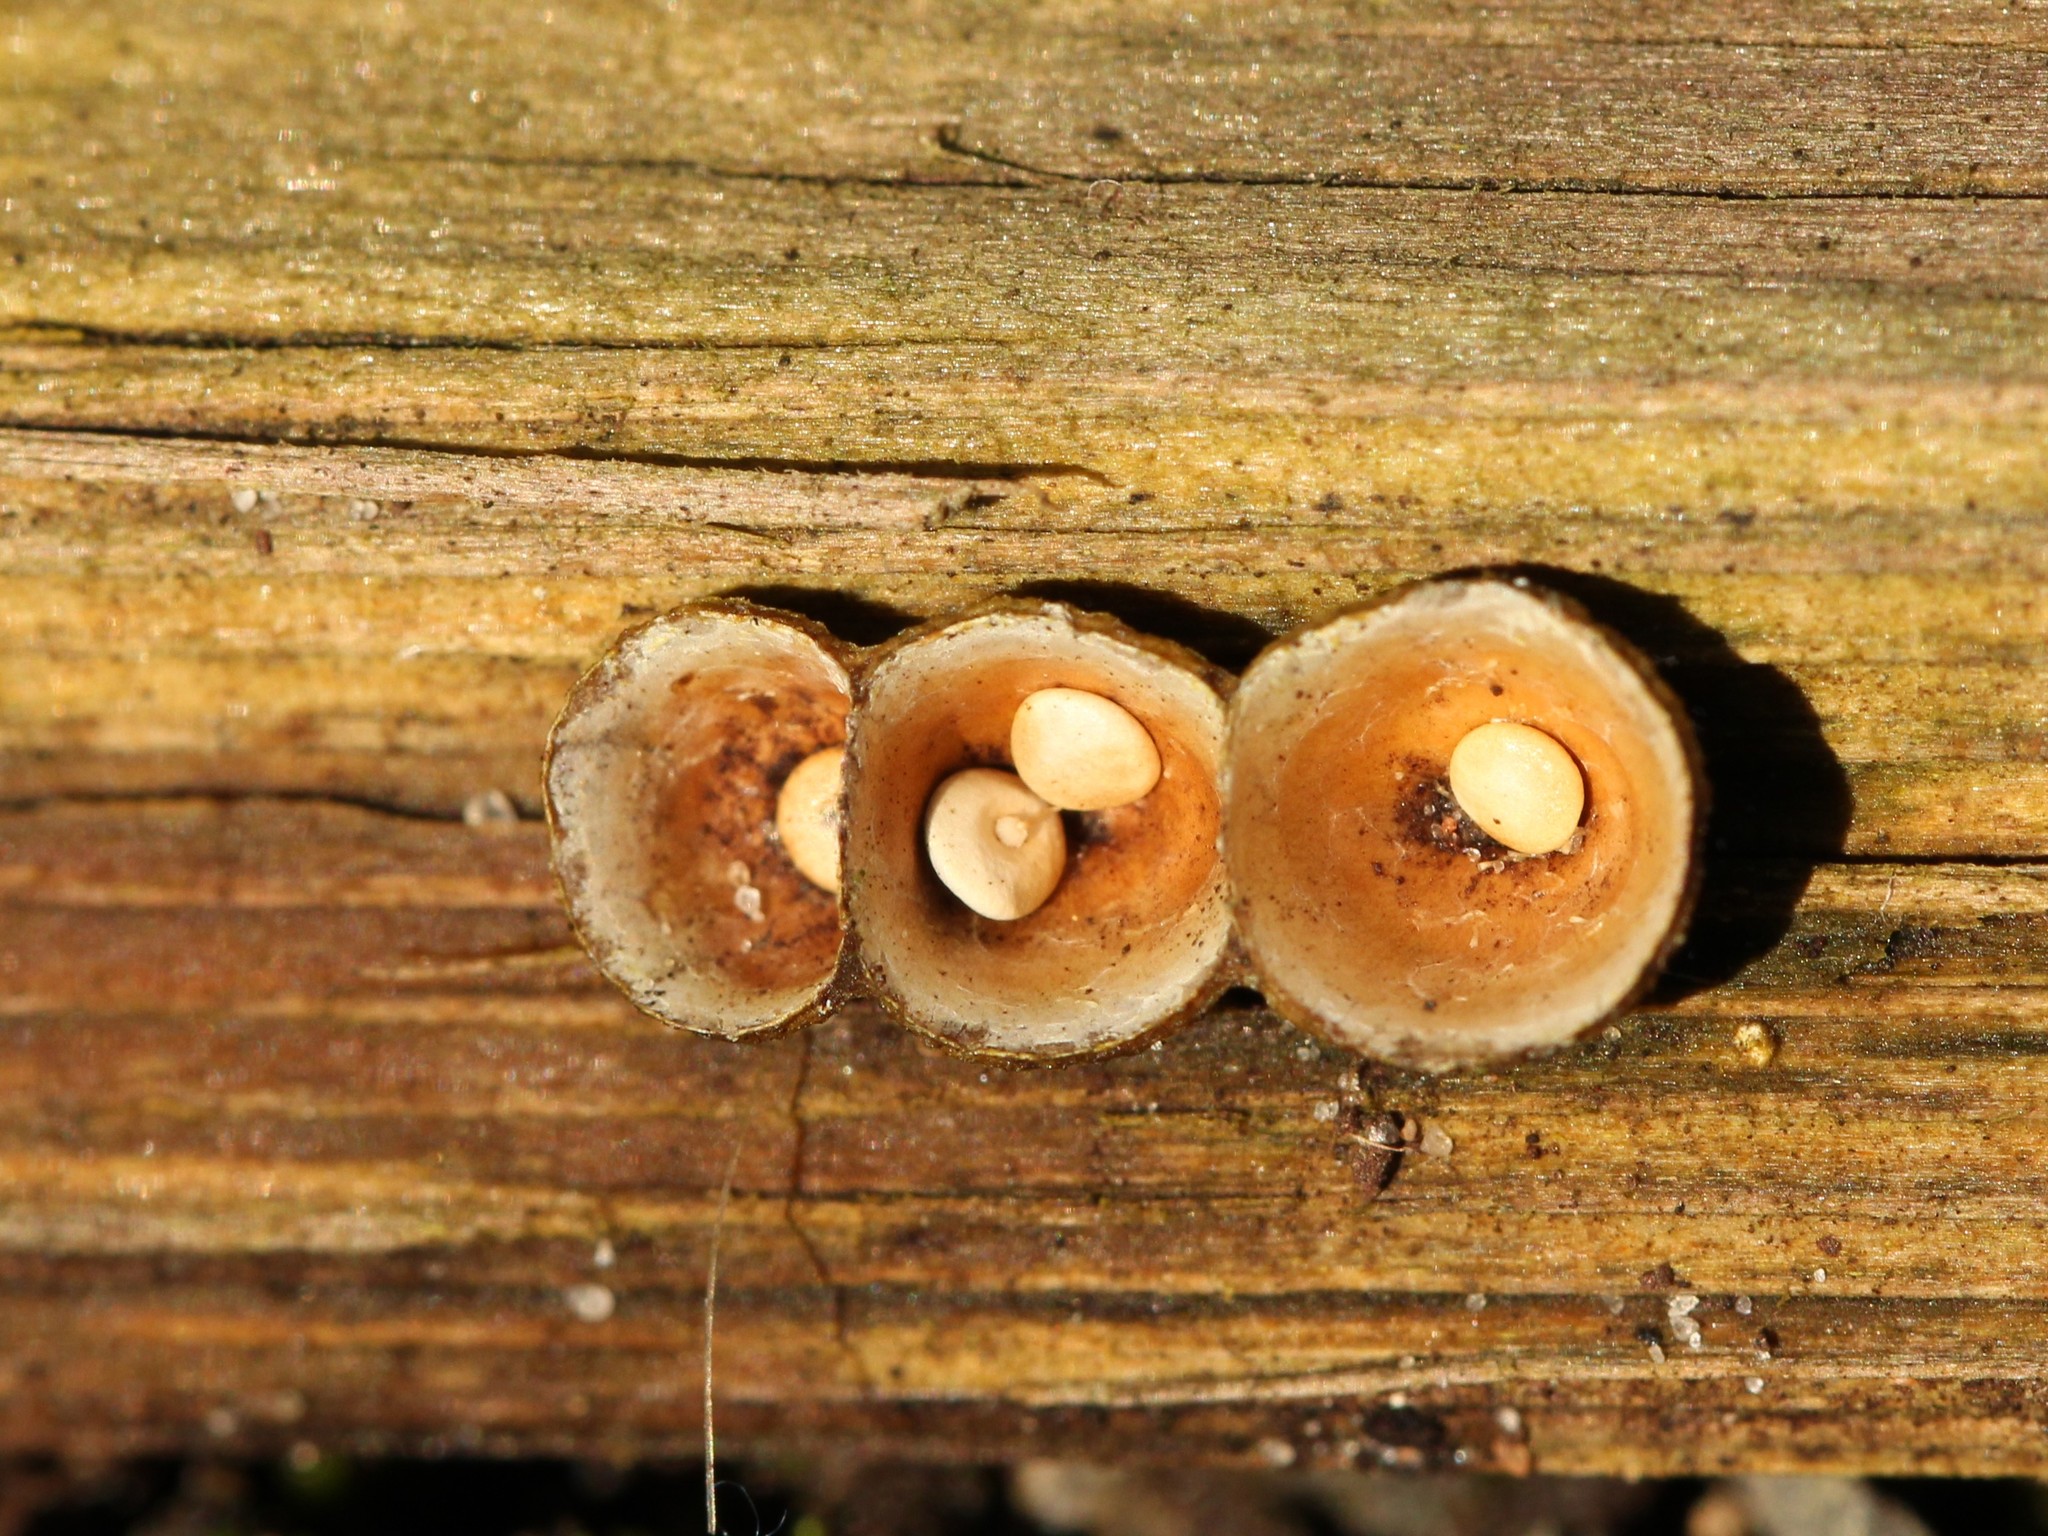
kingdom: Fungi
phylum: Basidiomycota
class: Agaricomycetes
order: Agaricales
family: Nidulariaceae
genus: Crucibulum
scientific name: Crucibulum laeve
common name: Common bird's nest
